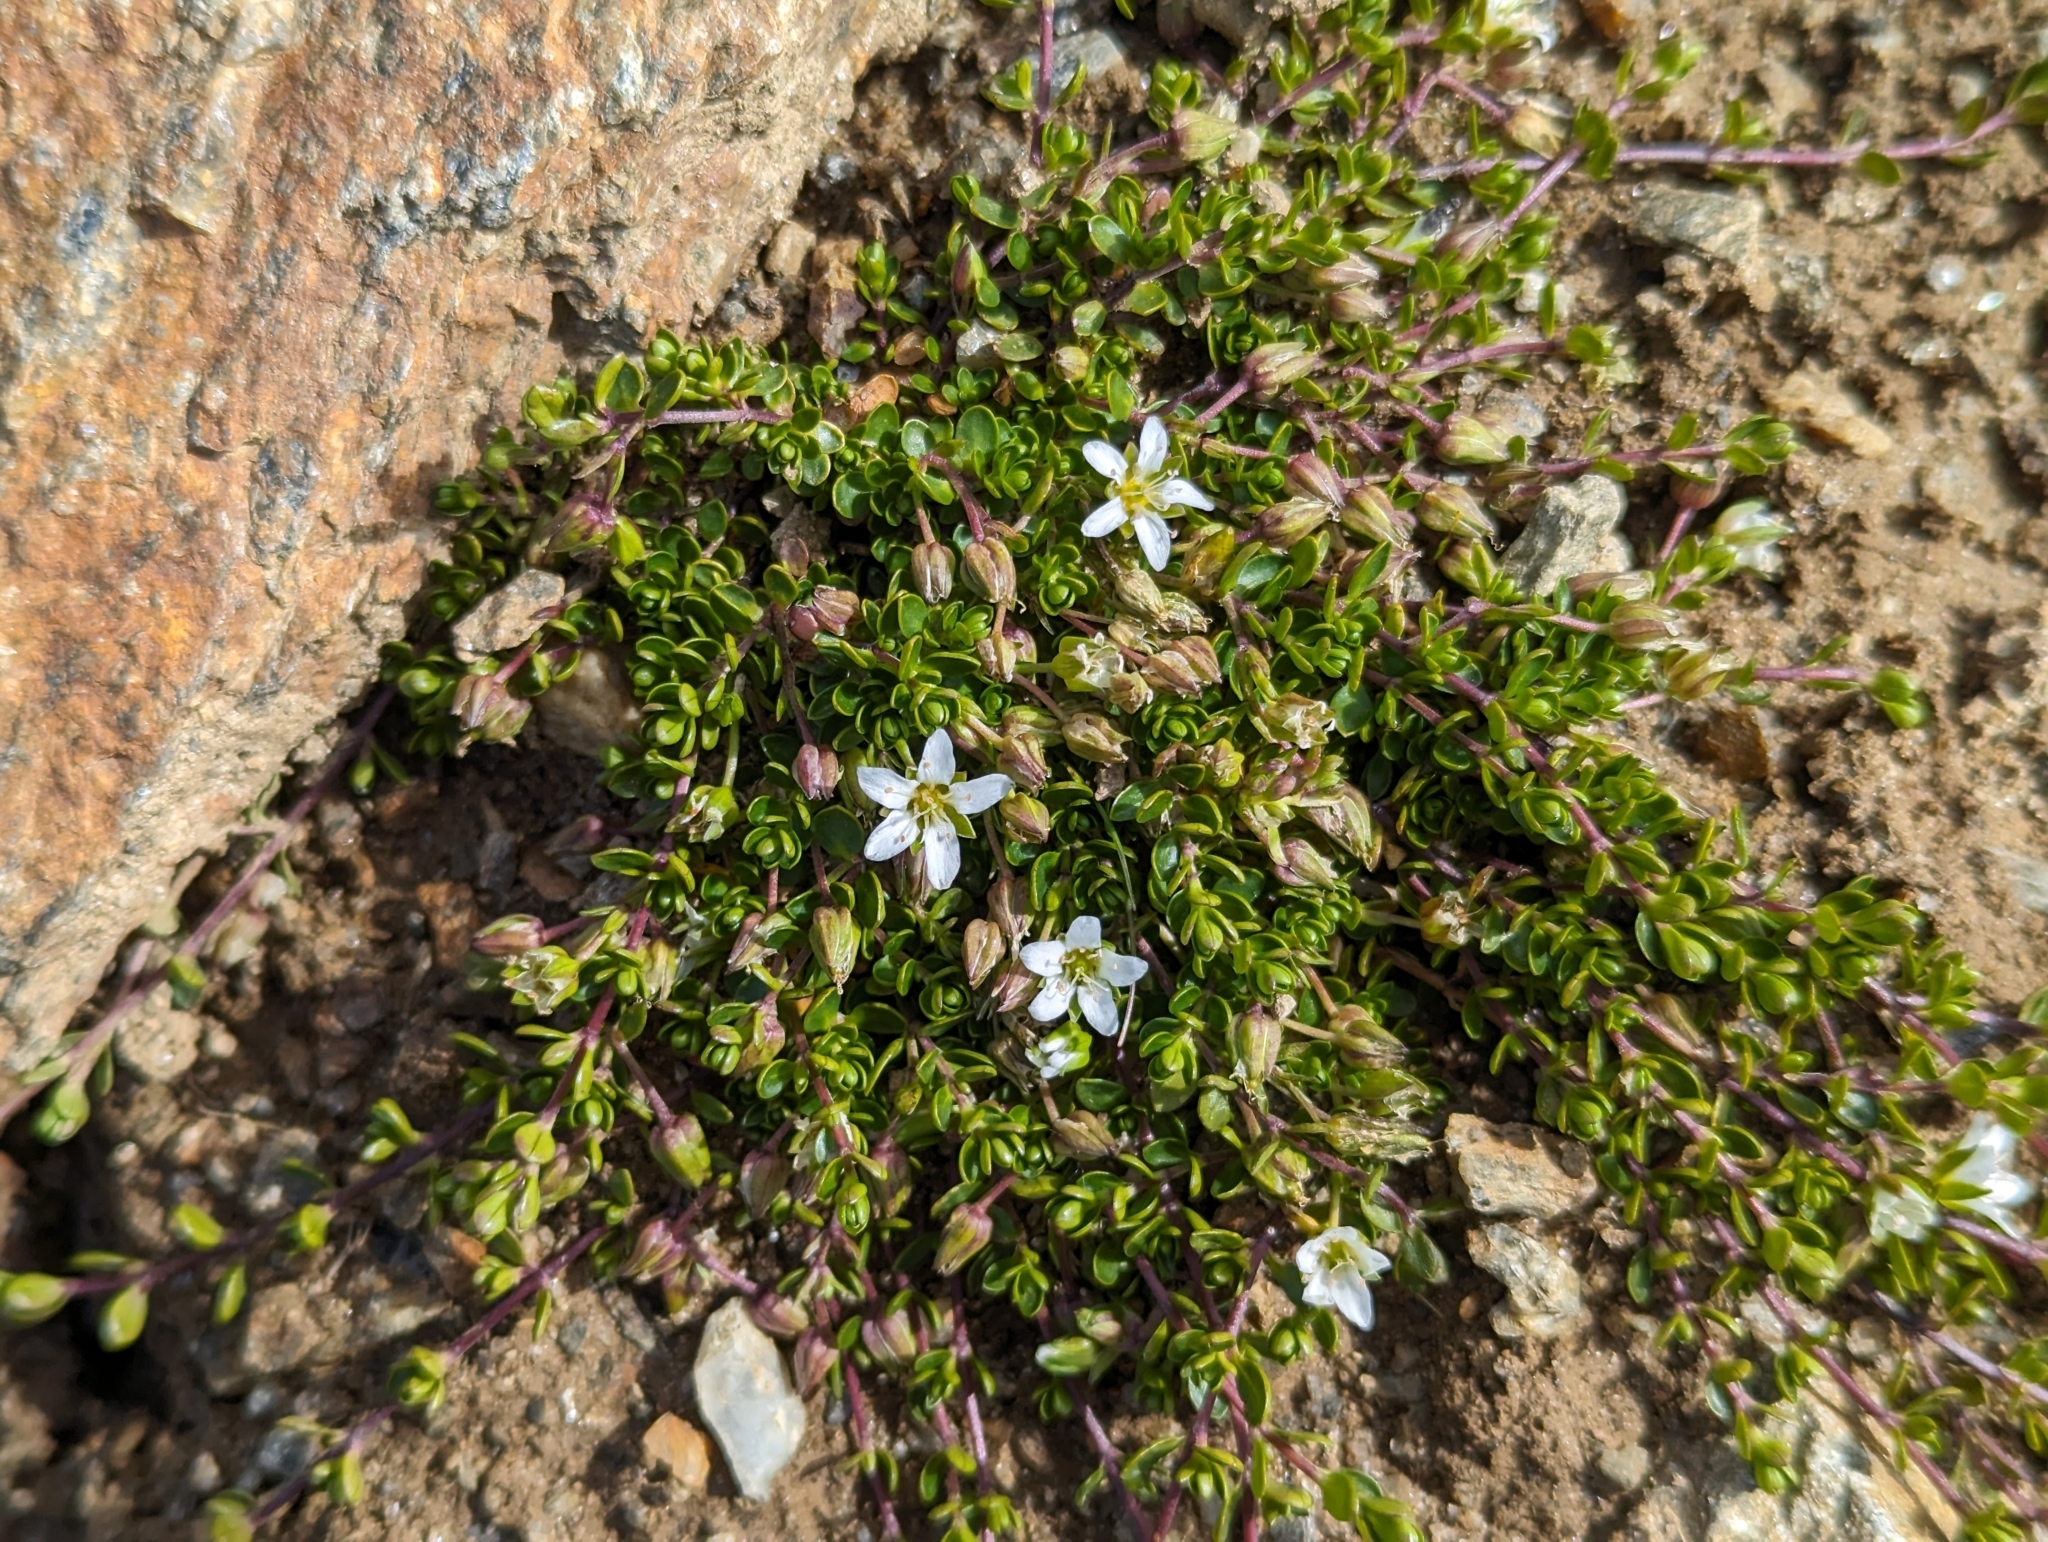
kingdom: Plantae
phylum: Tracheophyta
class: Magnoliopsida
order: Caryophyllales
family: Caryophyllaceae
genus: Arenaria
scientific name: Arenaria biflora
